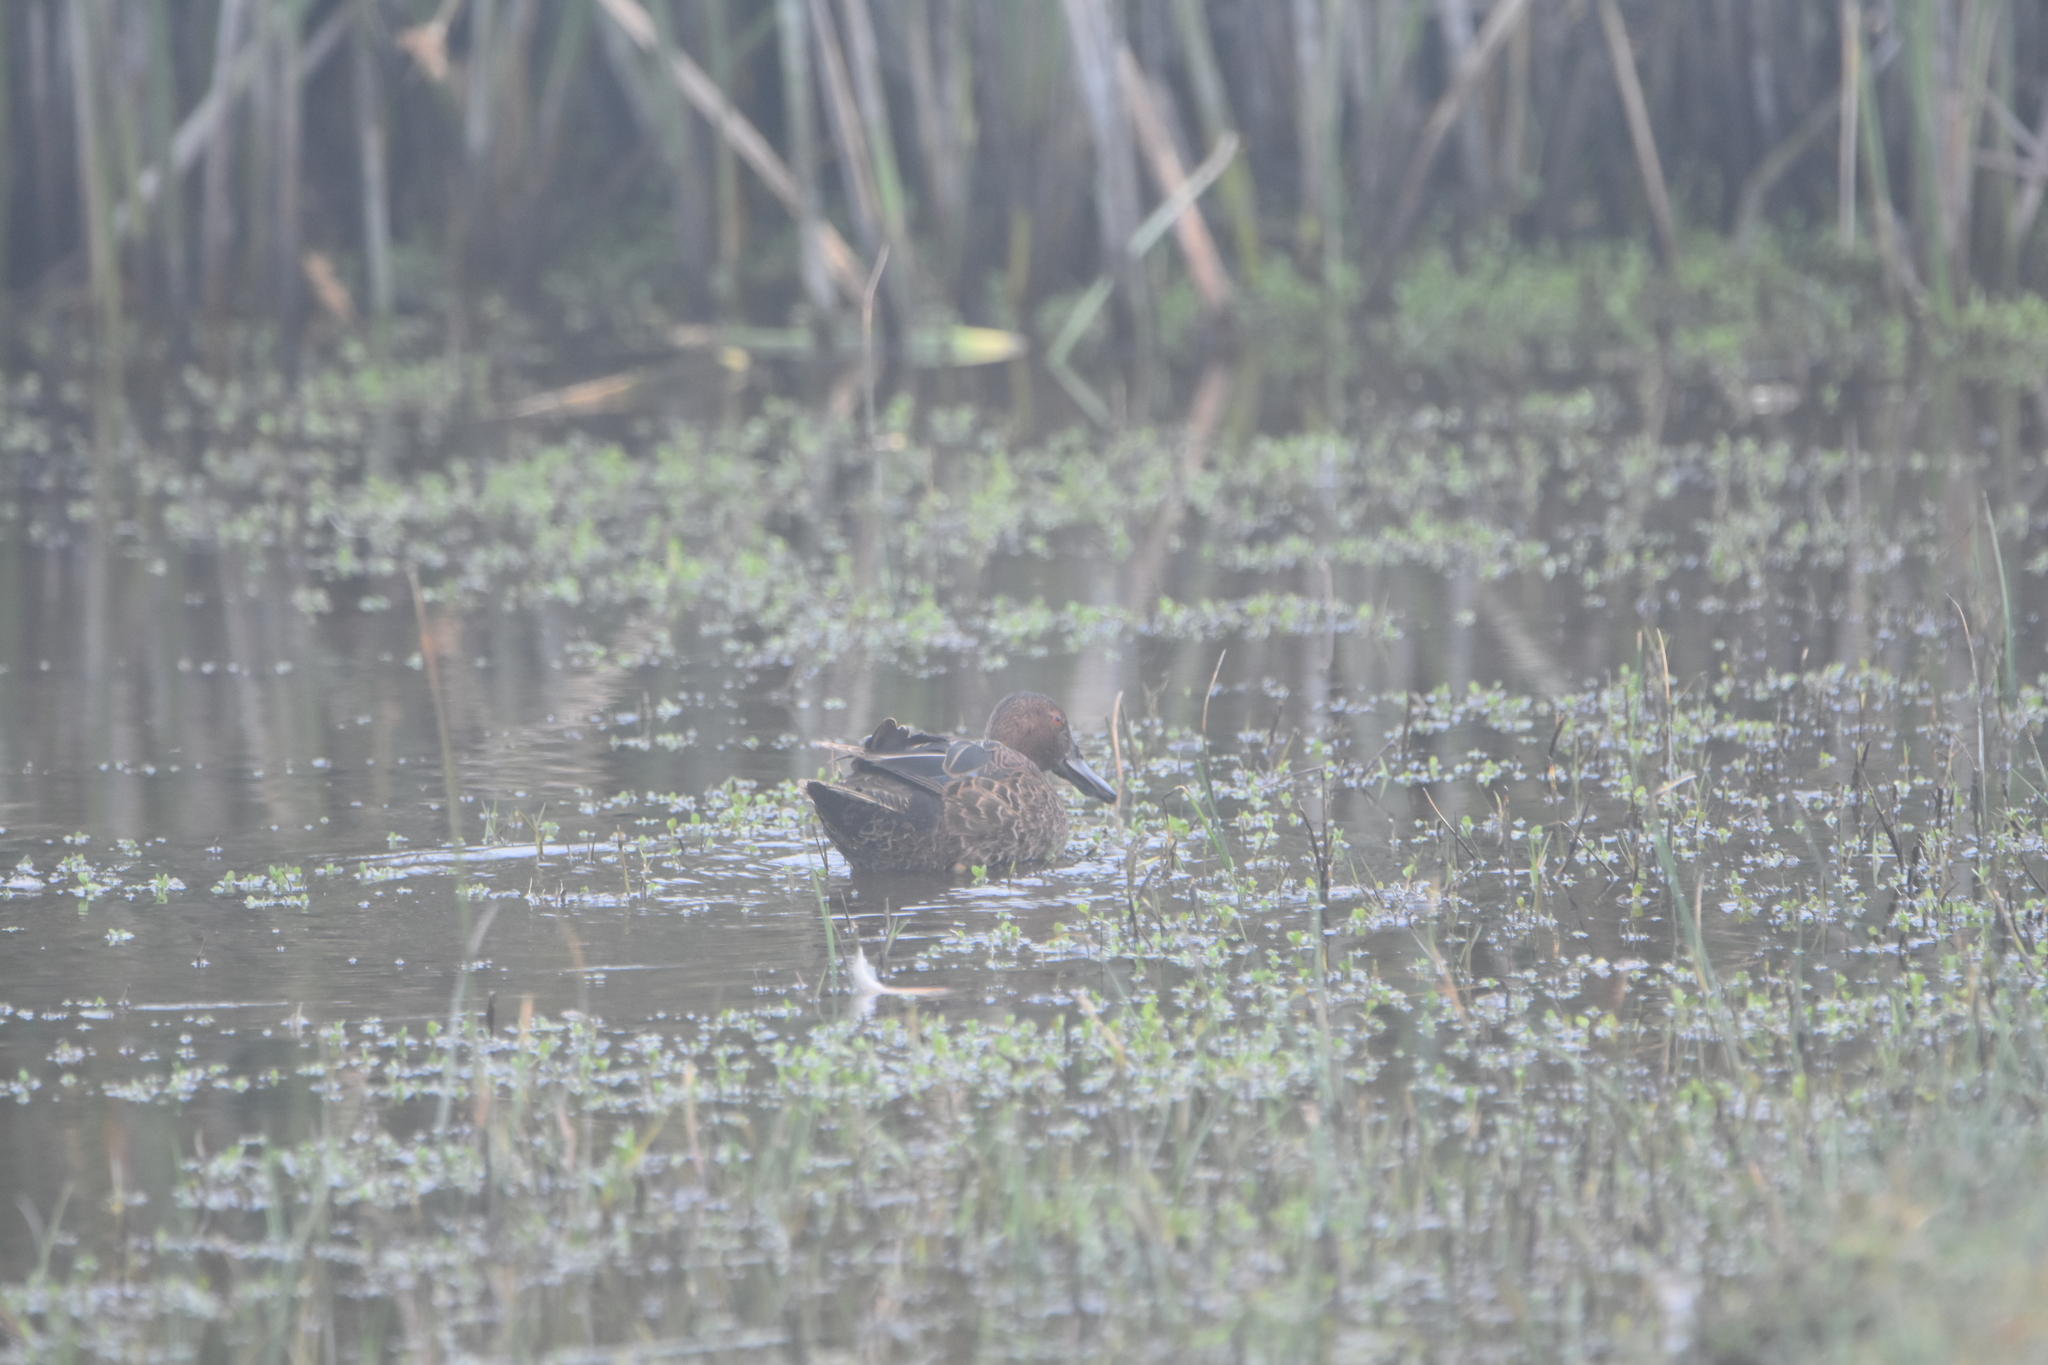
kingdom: Animalia
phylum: Chordata
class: Aves
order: Anseriformes
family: Anatidae
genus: Spatula
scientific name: Spatula cyanoptera
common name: Cinnamon teal
